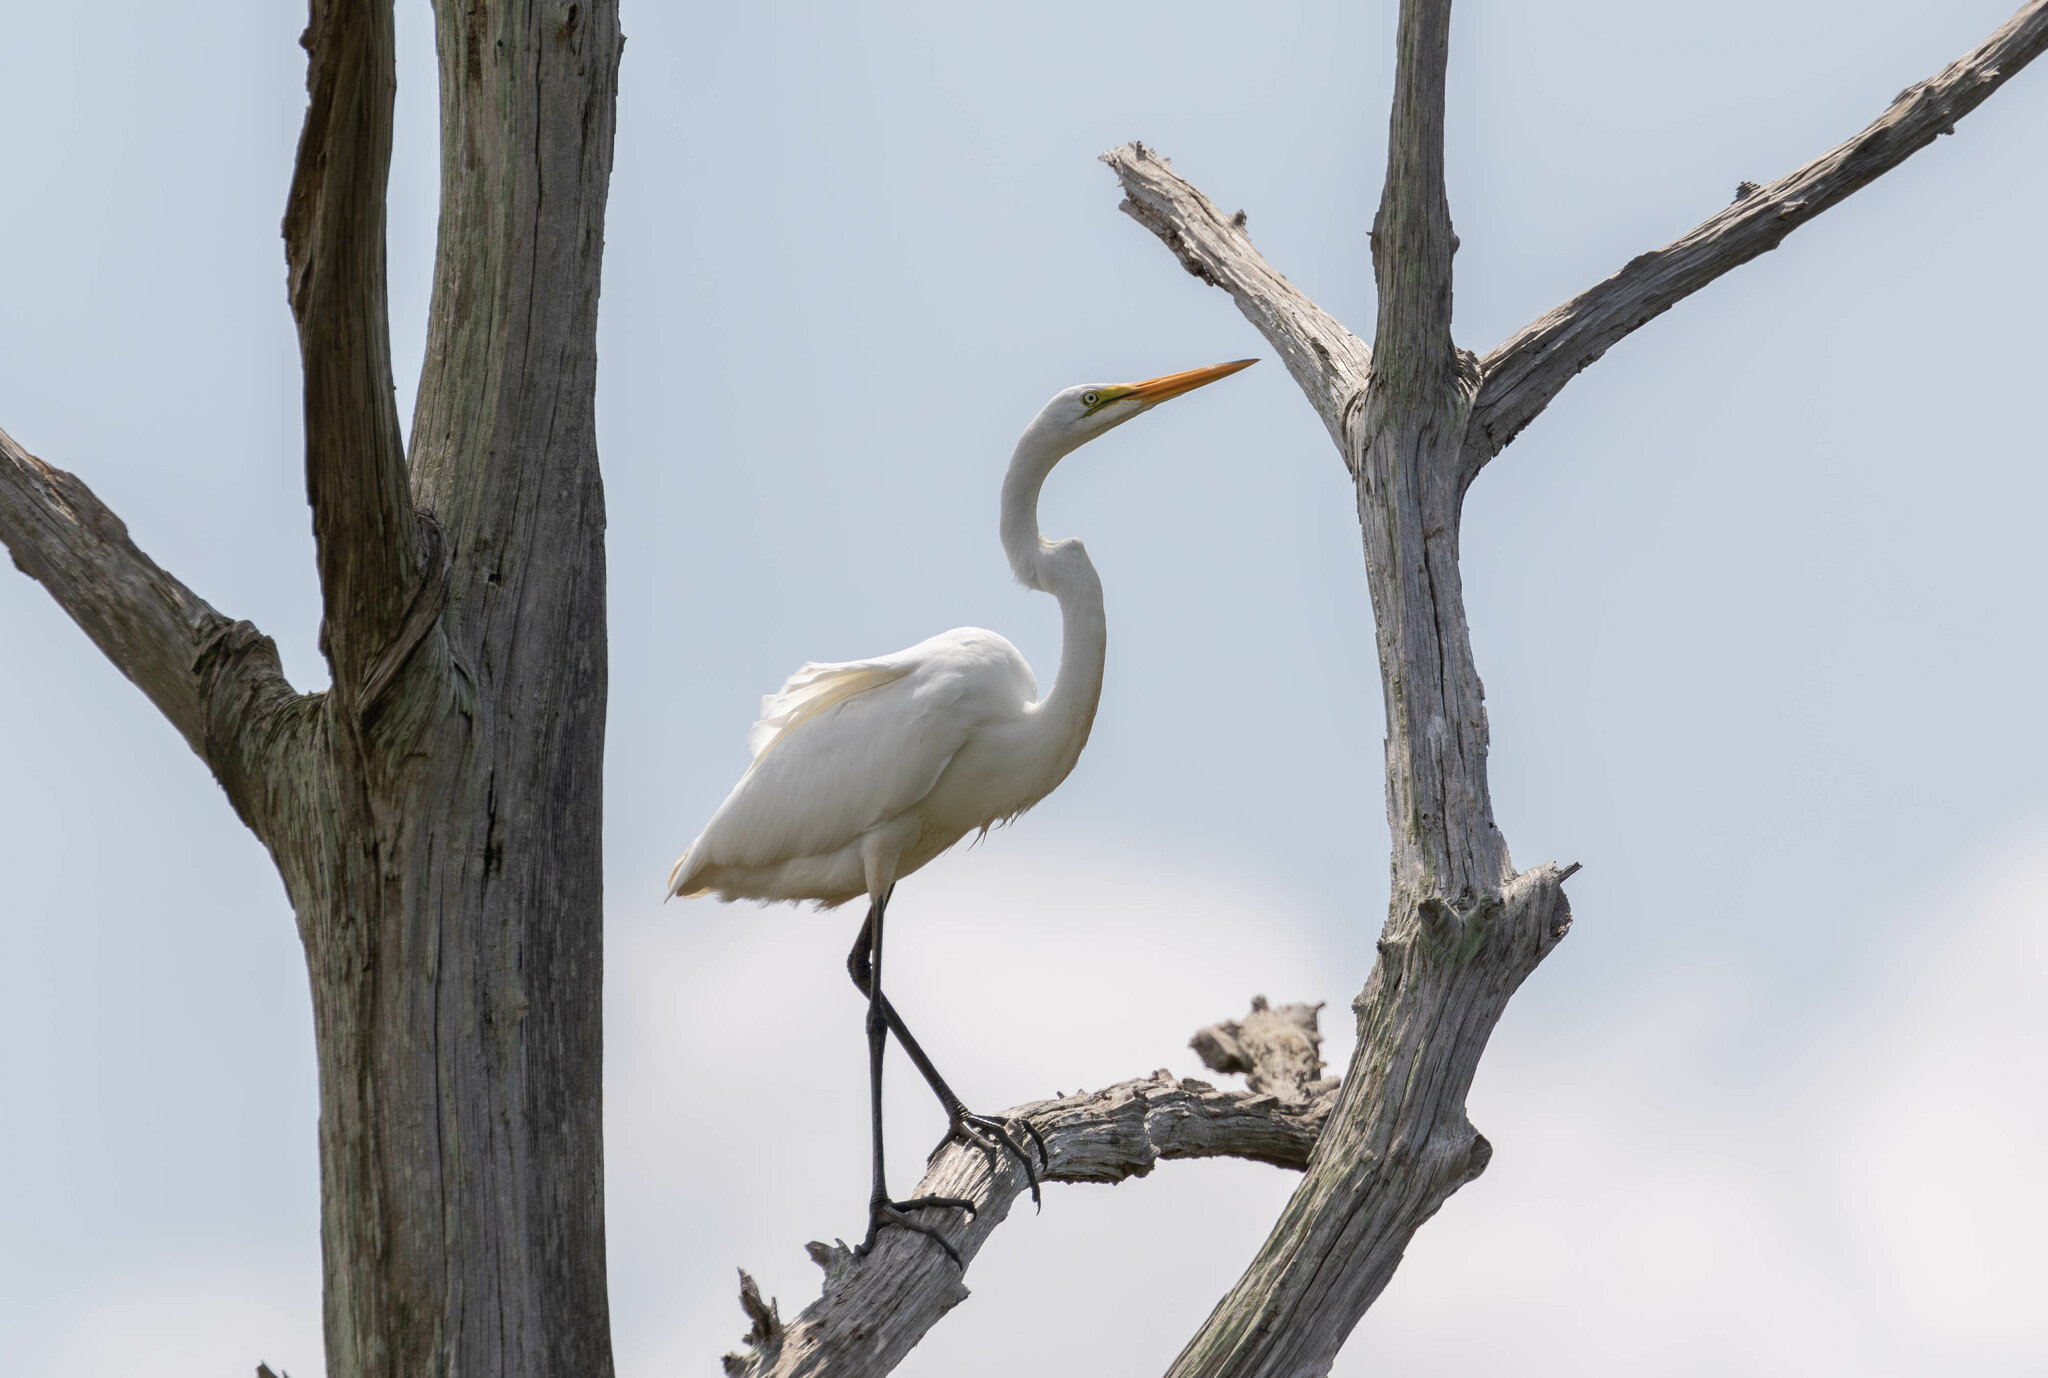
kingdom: Animalia
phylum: Chordata
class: Aves
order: Pelecaniformes
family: Ardeidae
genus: Ardea
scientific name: Ardea alba
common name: Great egret
